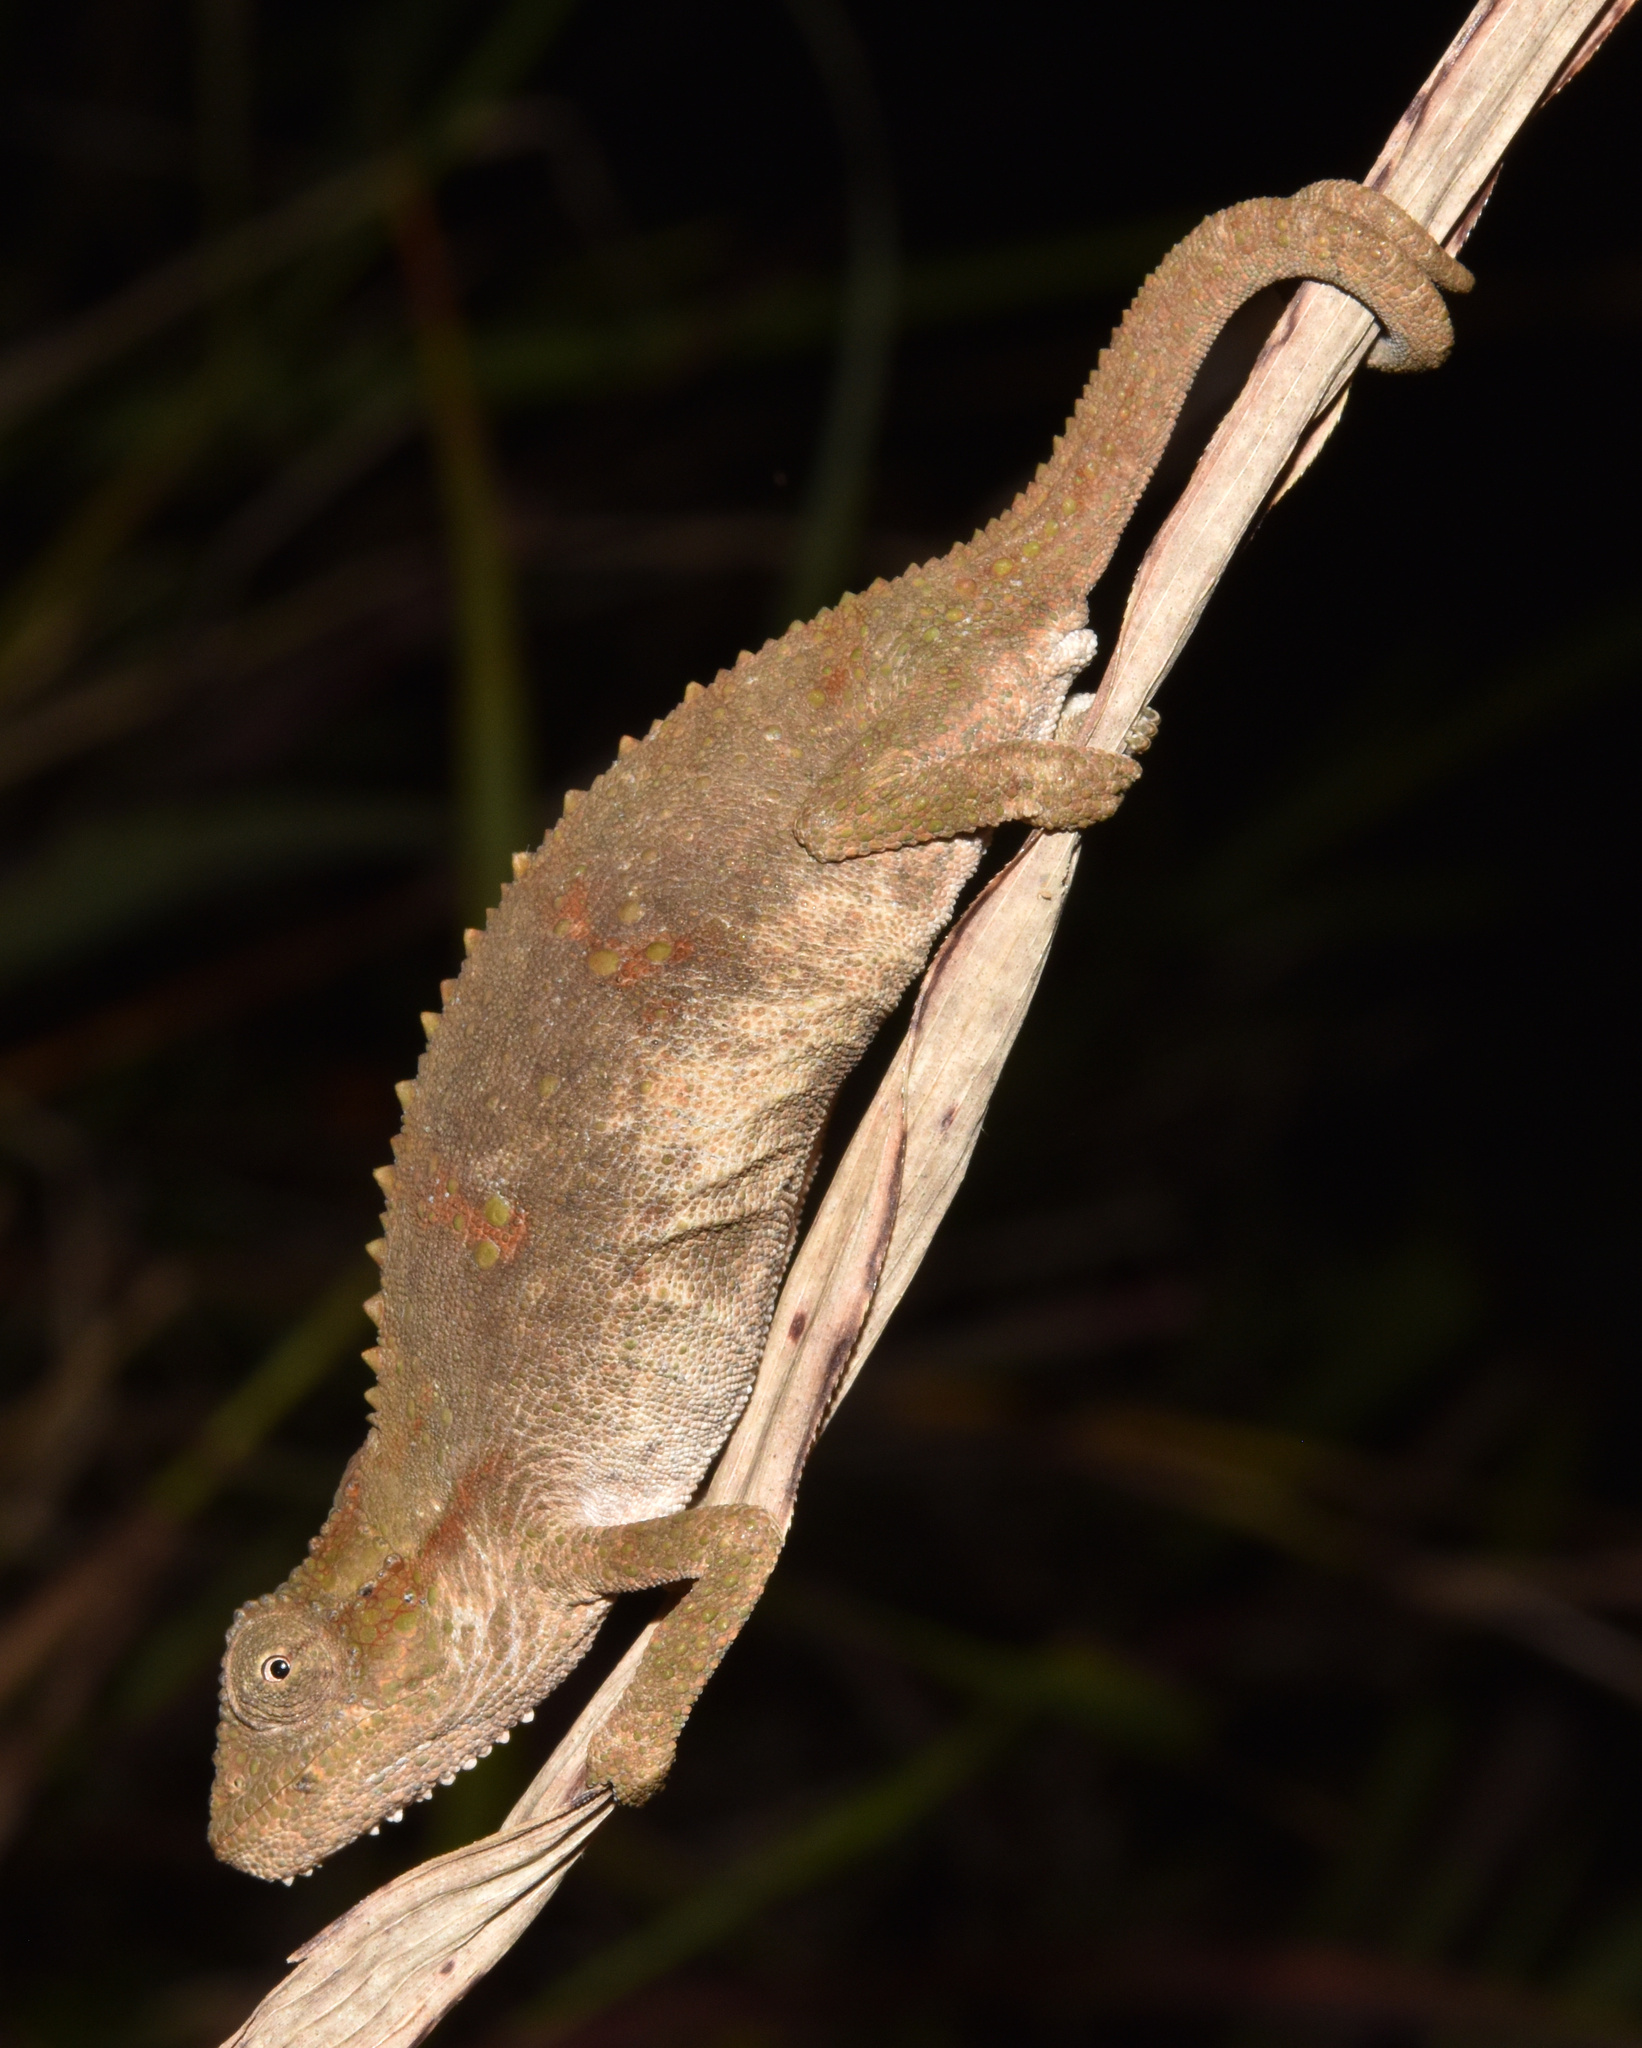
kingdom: Animalia
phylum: Chordata
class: Squamata
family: Chamaeleonidae
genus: Bradypodion
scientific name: Bradypodion melanocephalum
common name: Black-headed dwarf chameleon
